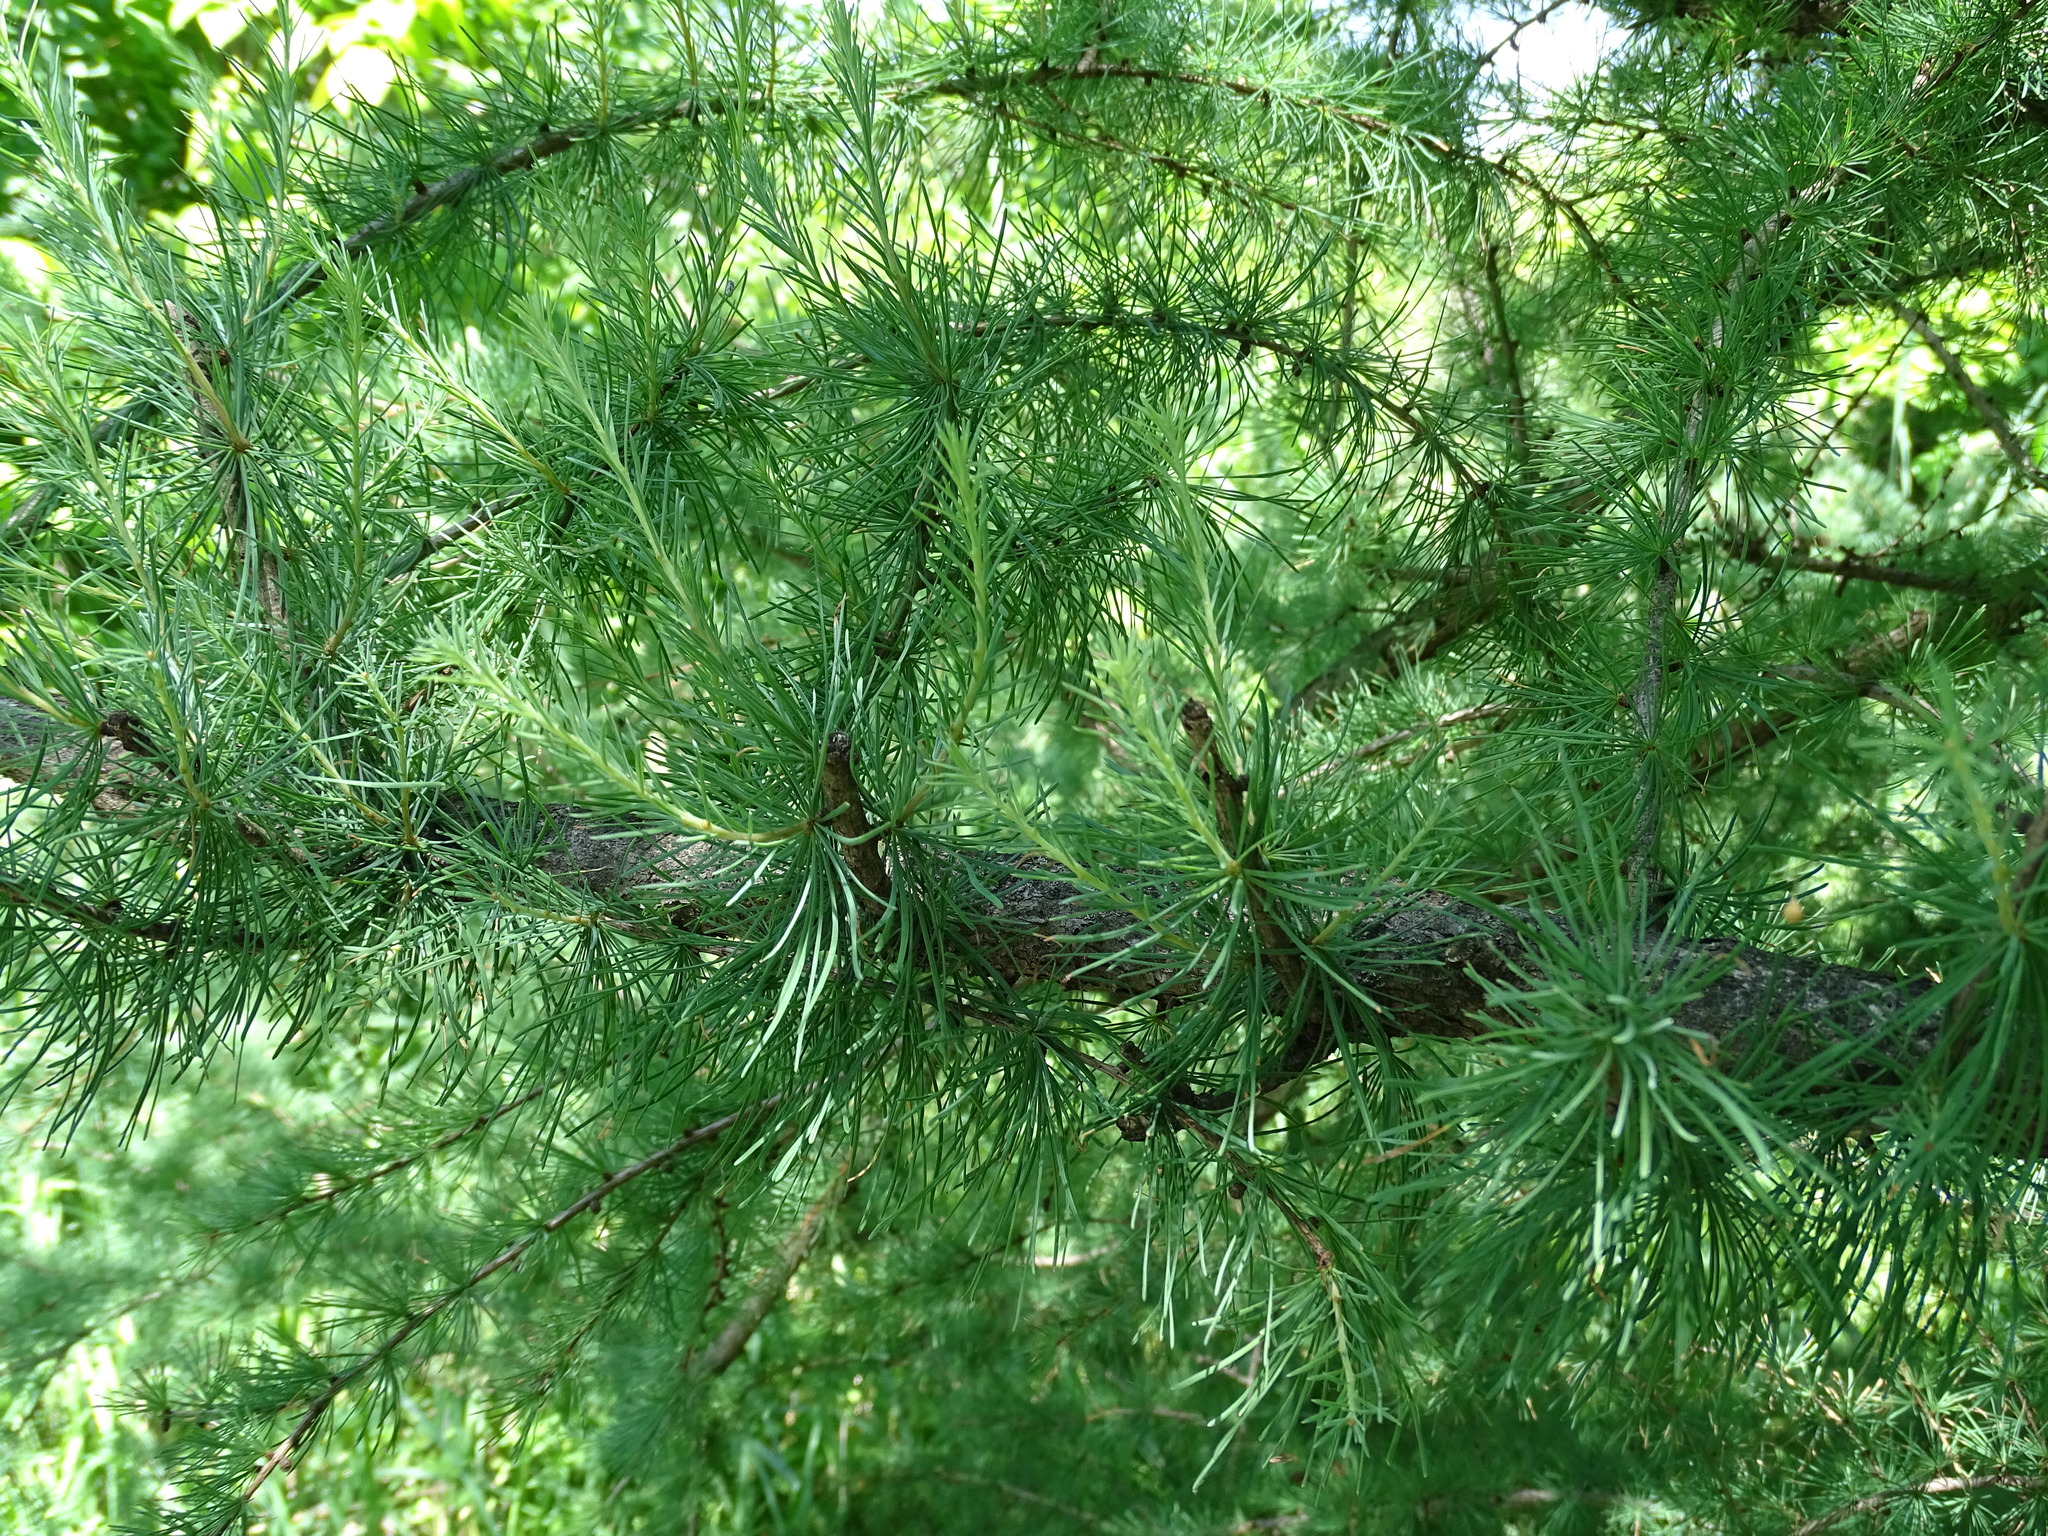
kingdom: Plantae
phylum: Tracheophyta
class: Pinopsida
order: Pinales
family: Pinaceae
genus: Larix
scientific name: Larix laricina
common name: American larch
